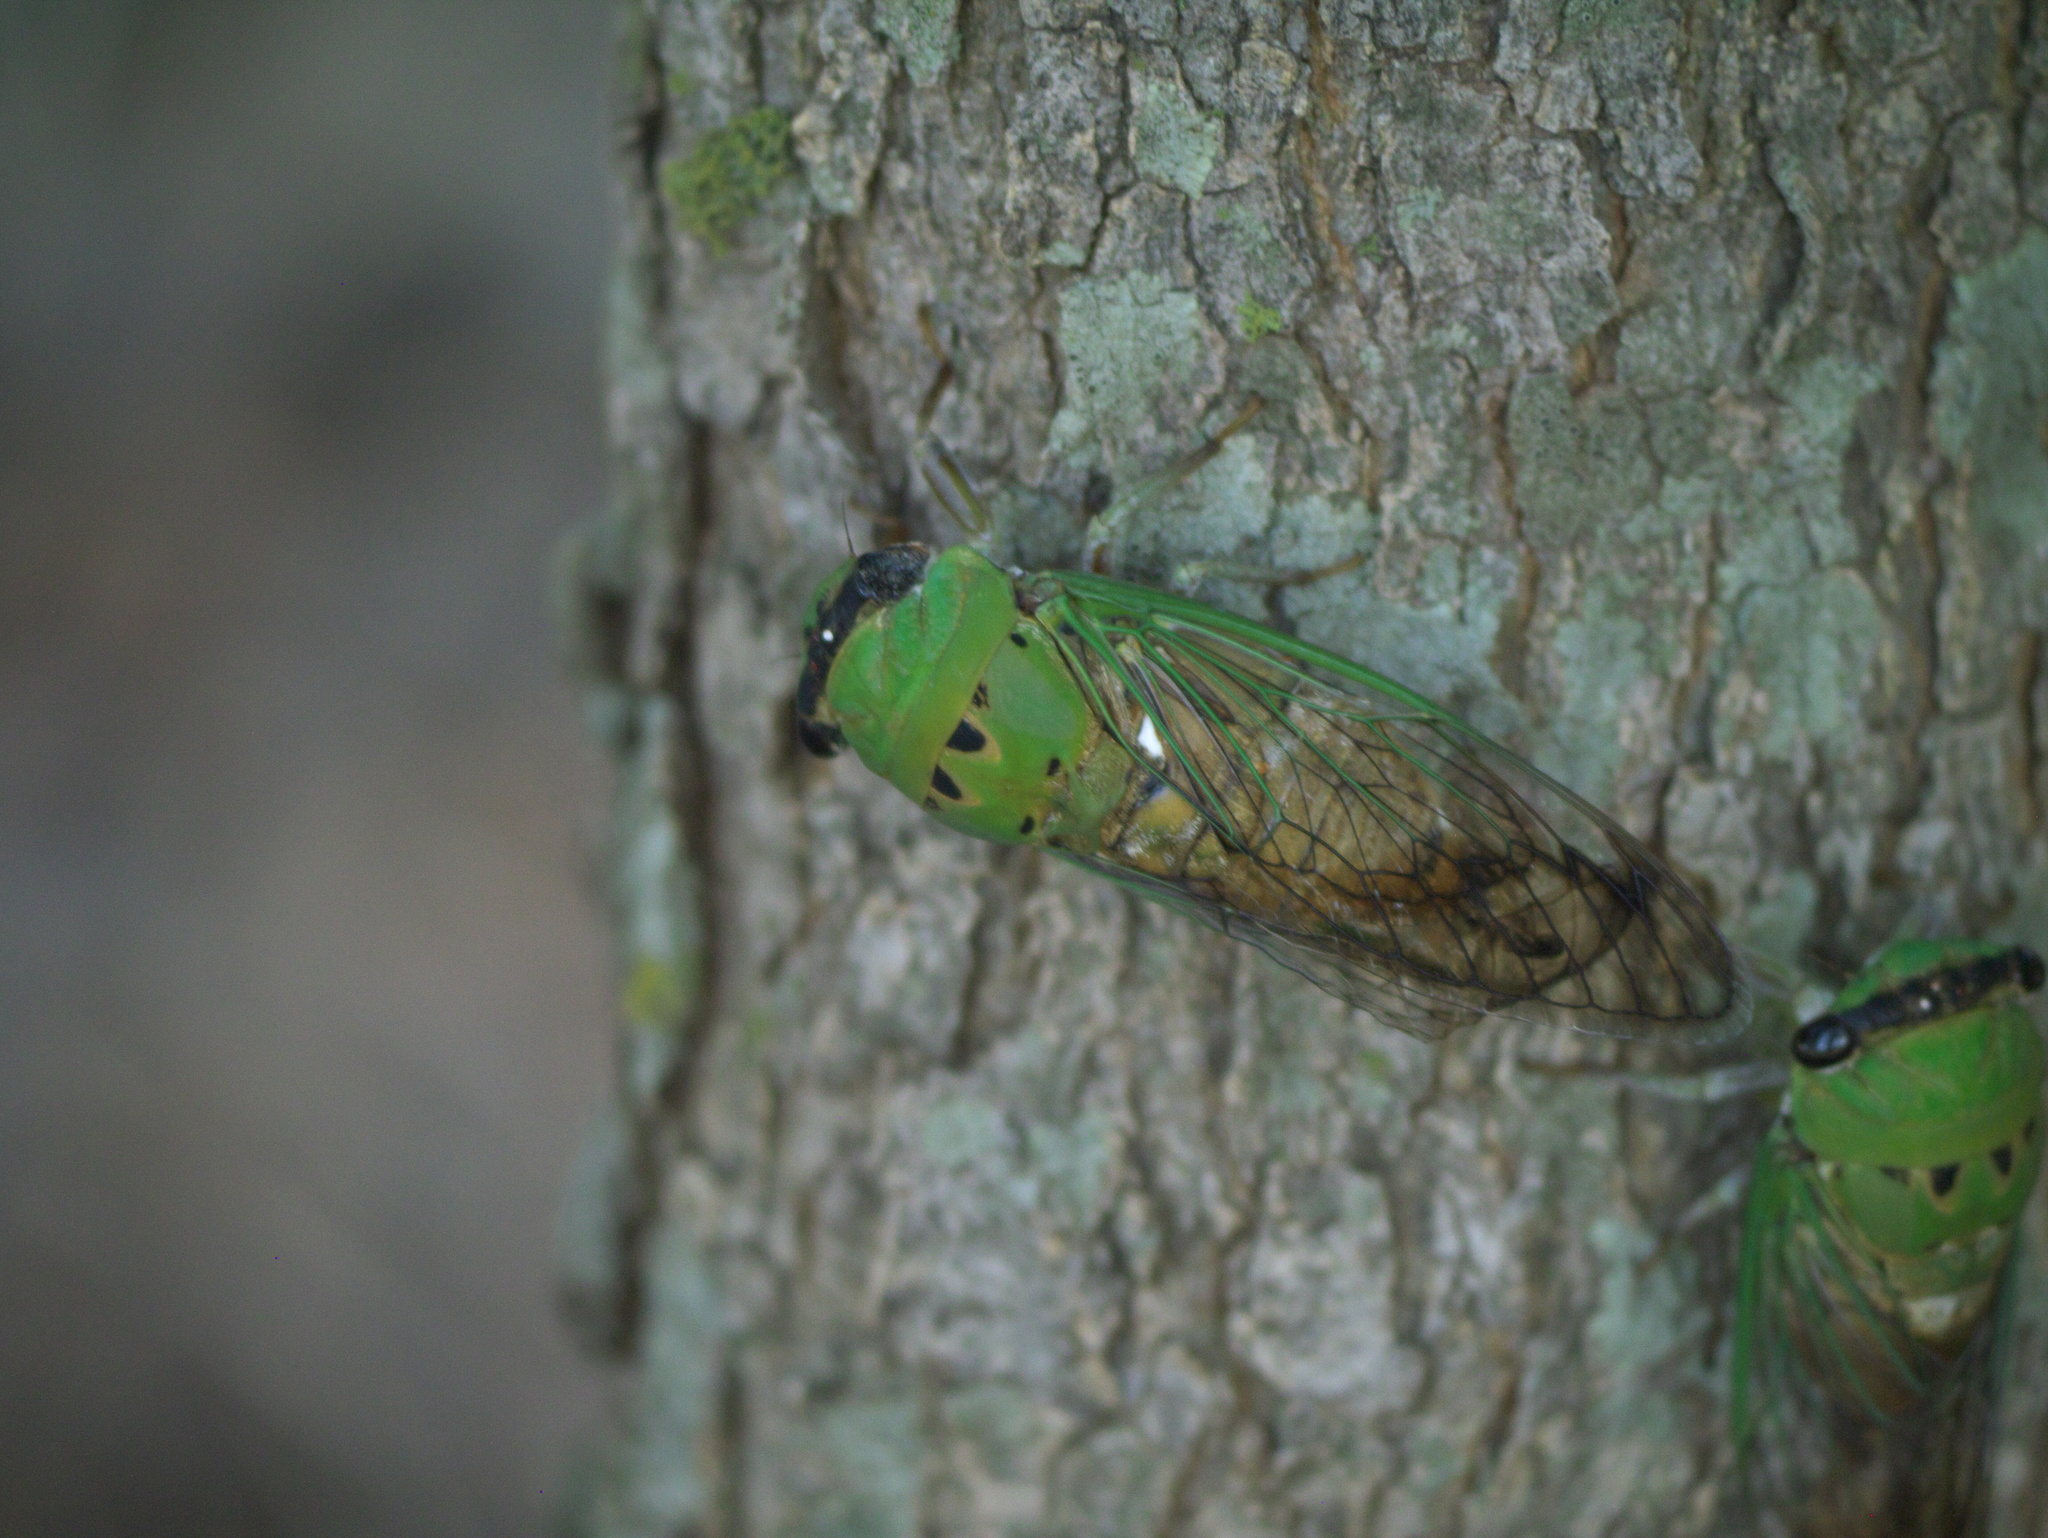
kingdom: Animalia
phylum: Arthropoda
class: Insecta
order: Hemiptera
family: Cicadidae
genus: Neotibicen
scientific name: Neotibicen superbus
